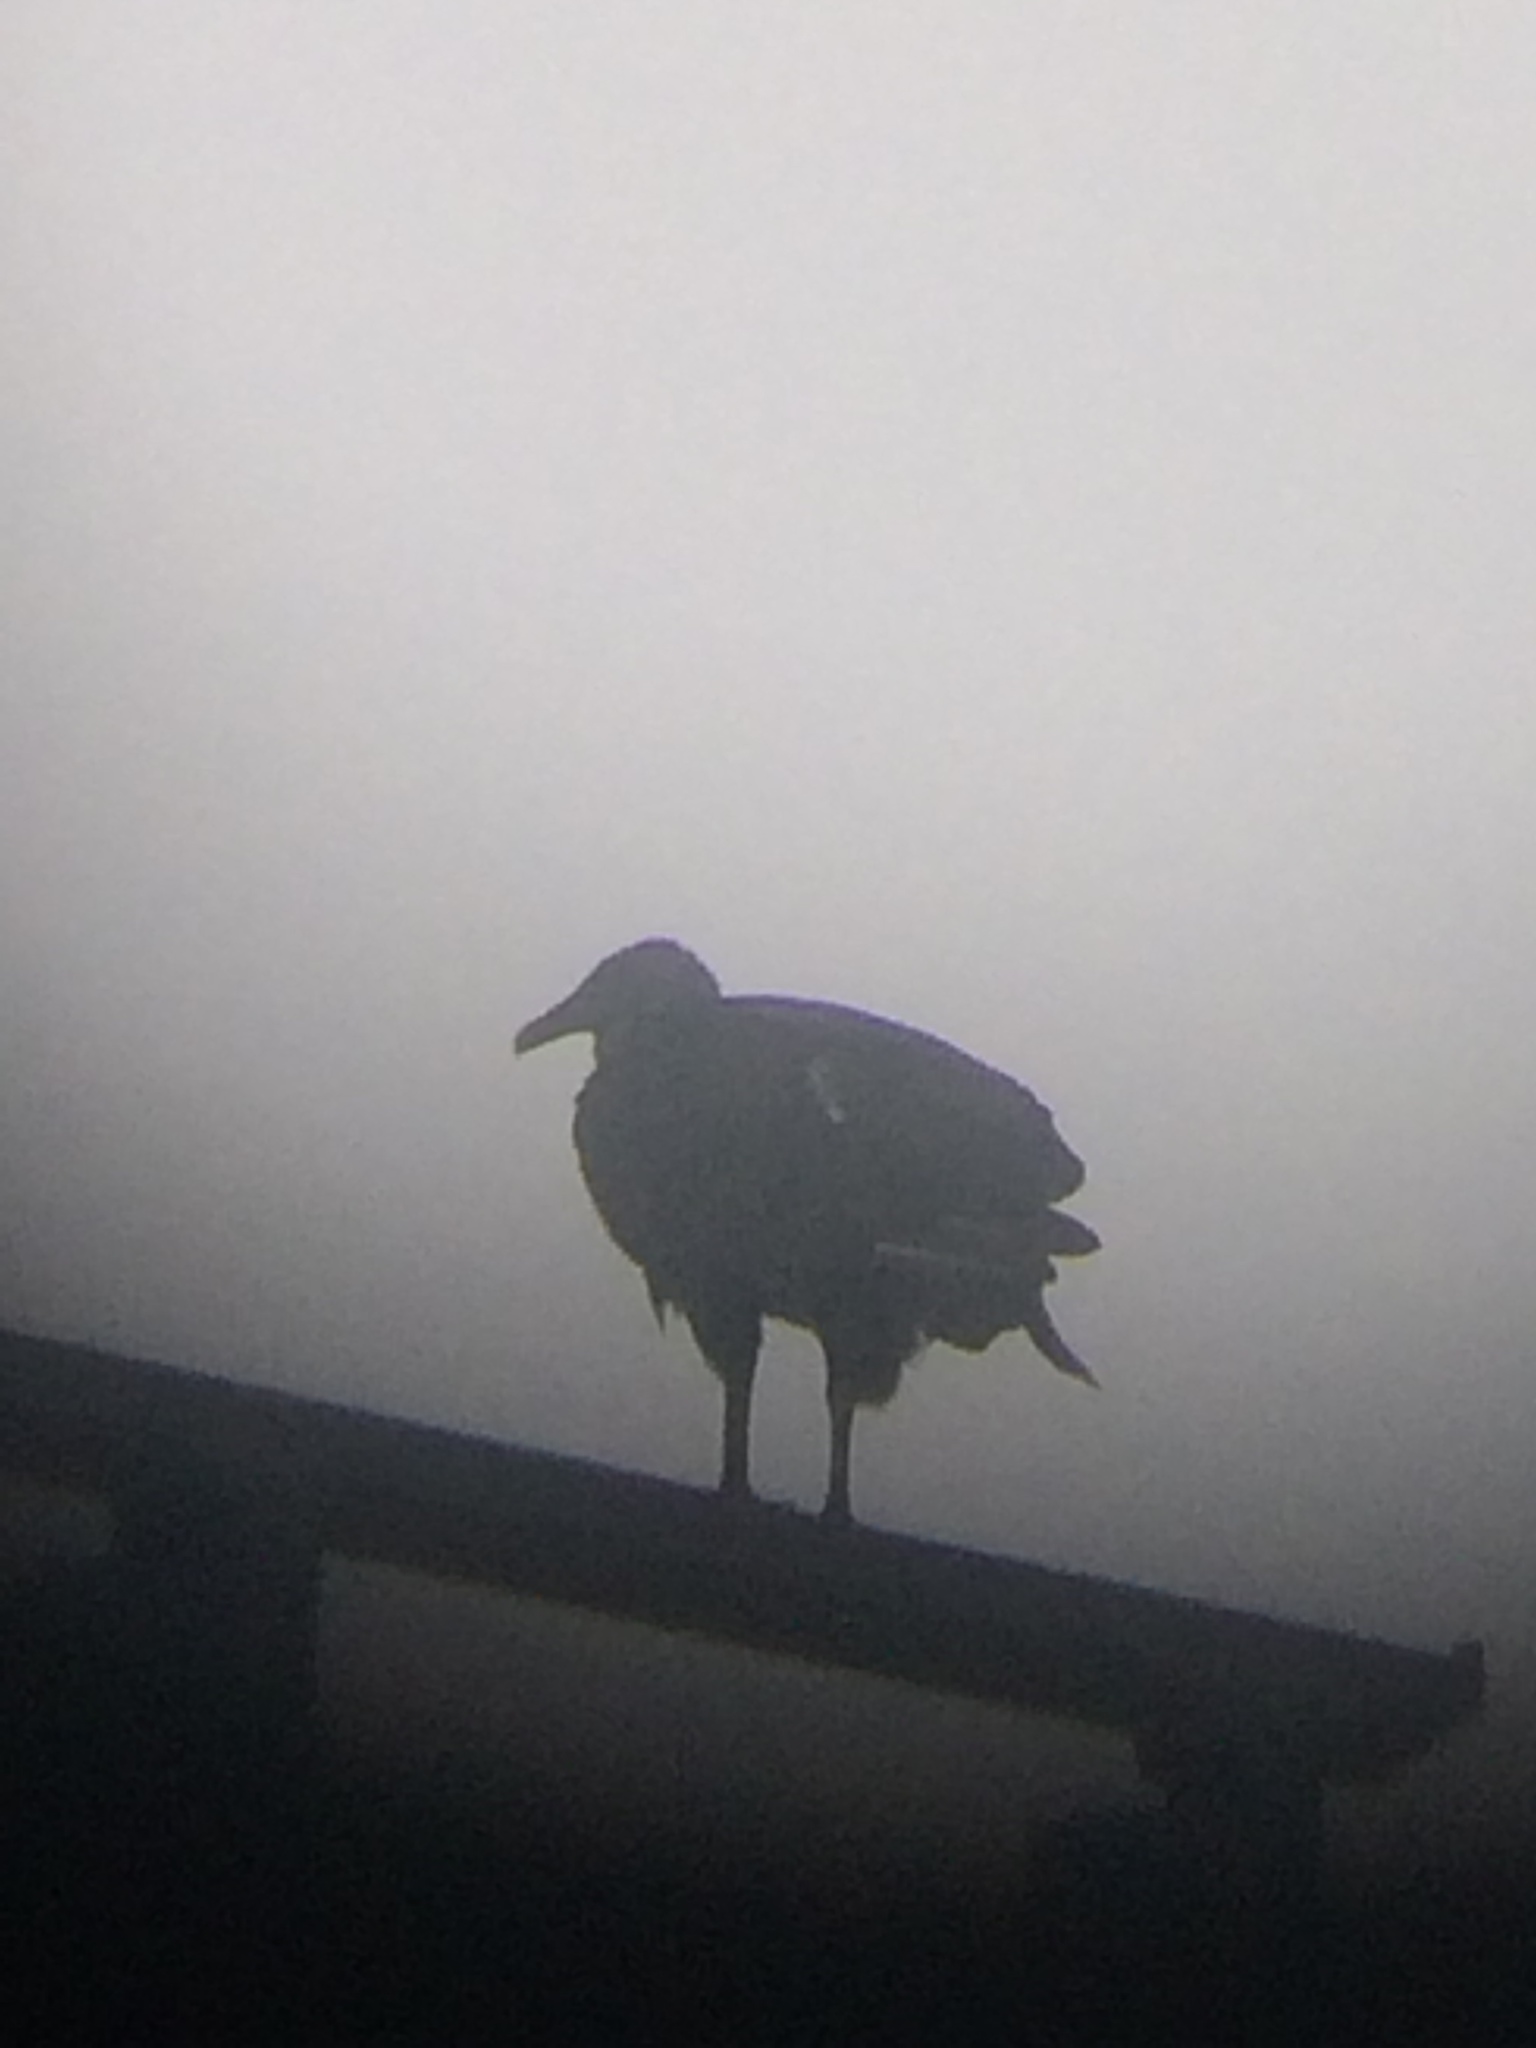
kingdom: Animalia
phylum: Chordata
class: Aves
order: Accipitriformes
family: Cathartidae
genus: Coragyps
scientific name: Coragyps atratus
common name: Black vulture
